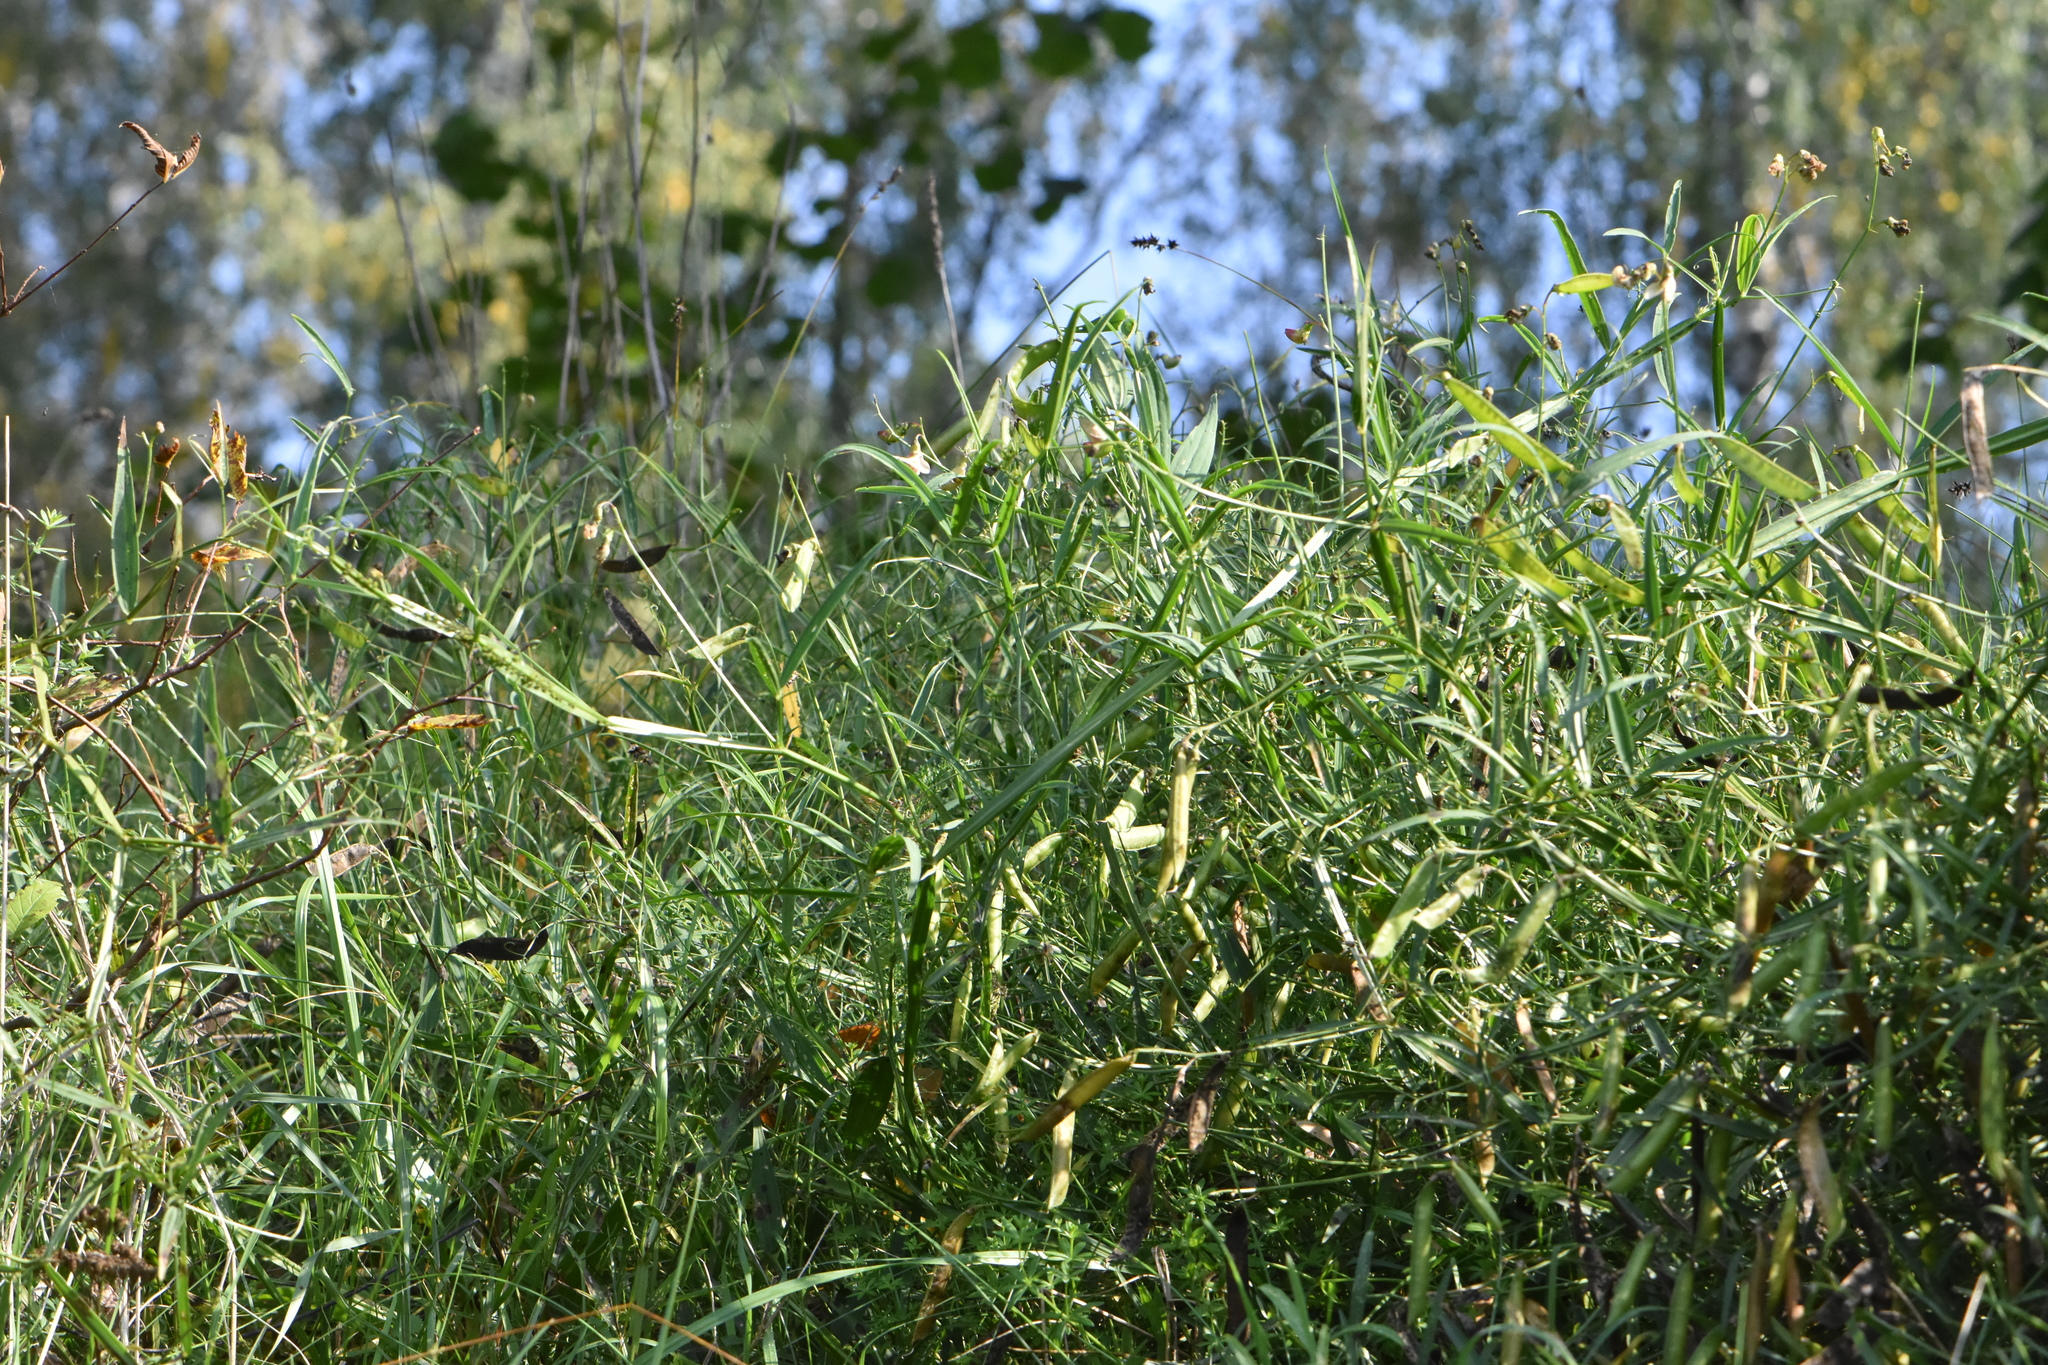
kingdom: Plantae
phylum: Tracheophyta
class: Magnoliopsida
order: Fabales
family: Fabaceae
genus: Lathyrus
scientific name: Lathyrus sylvestris
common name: Flat pea
